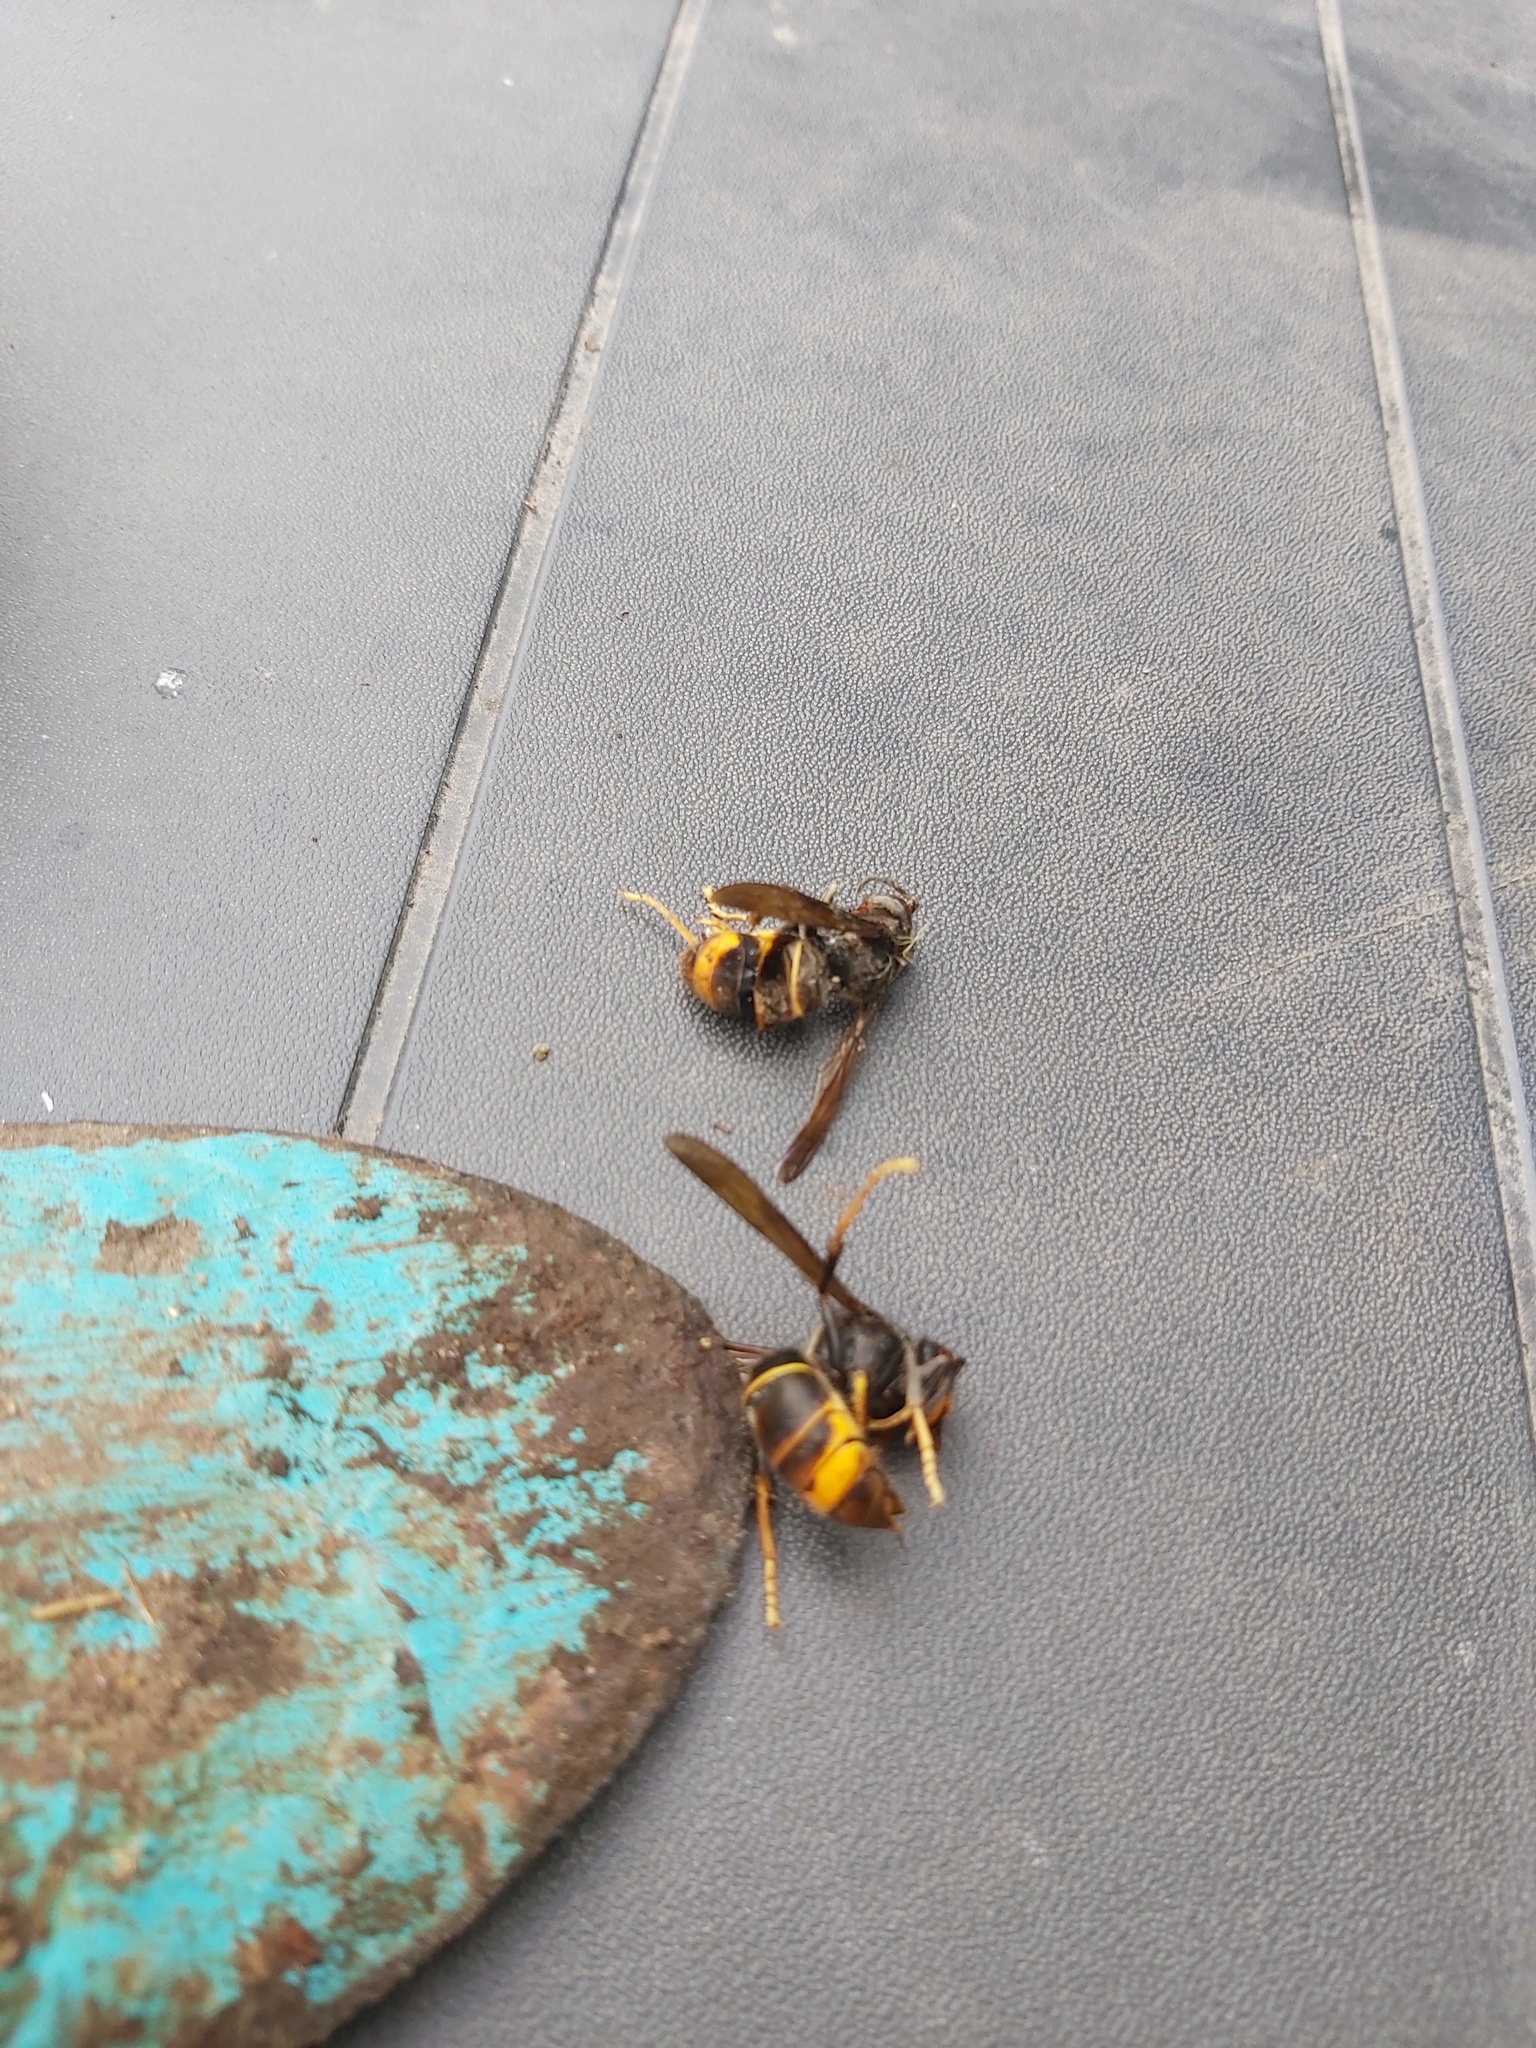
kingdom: Animalia
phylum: Arthropoda
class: Insecta
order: Hymenoptera
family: Vespidae
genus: Vespa
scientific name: Vespa velutina
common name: Asian hornet
